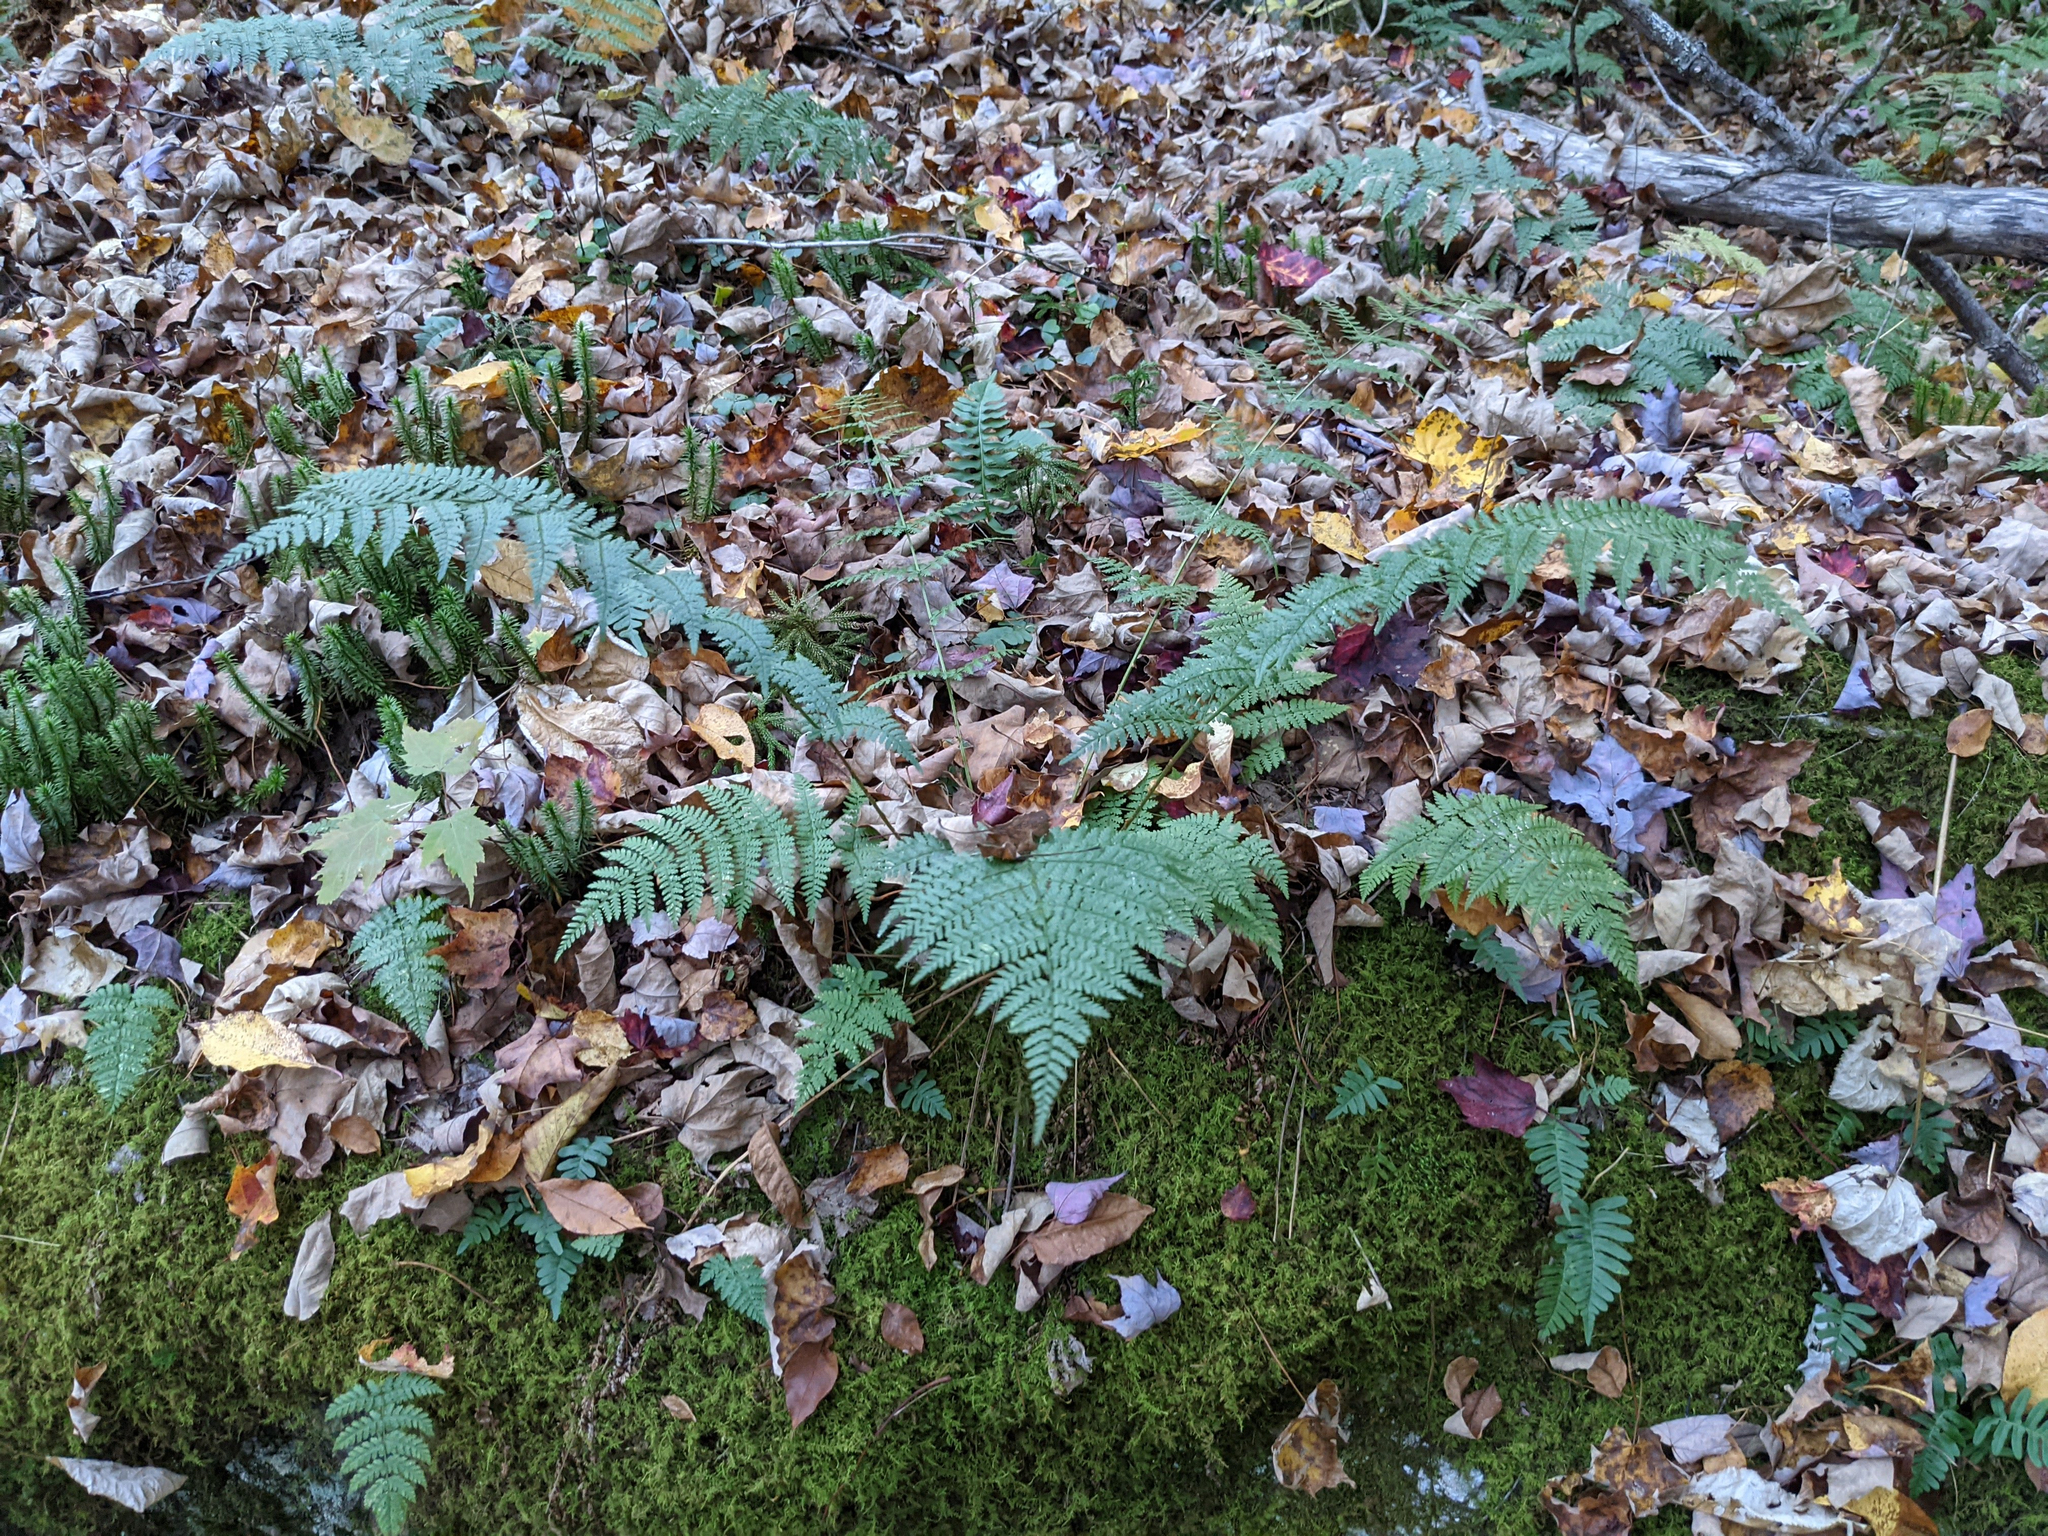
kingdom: Plantae
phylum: Tracheophyta
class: Polypodiopsida
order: Polypodiales
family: Dryopteridaceae
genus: Dryopteris
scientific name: Dryopteris intermedia
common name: Evergreen wood fern
